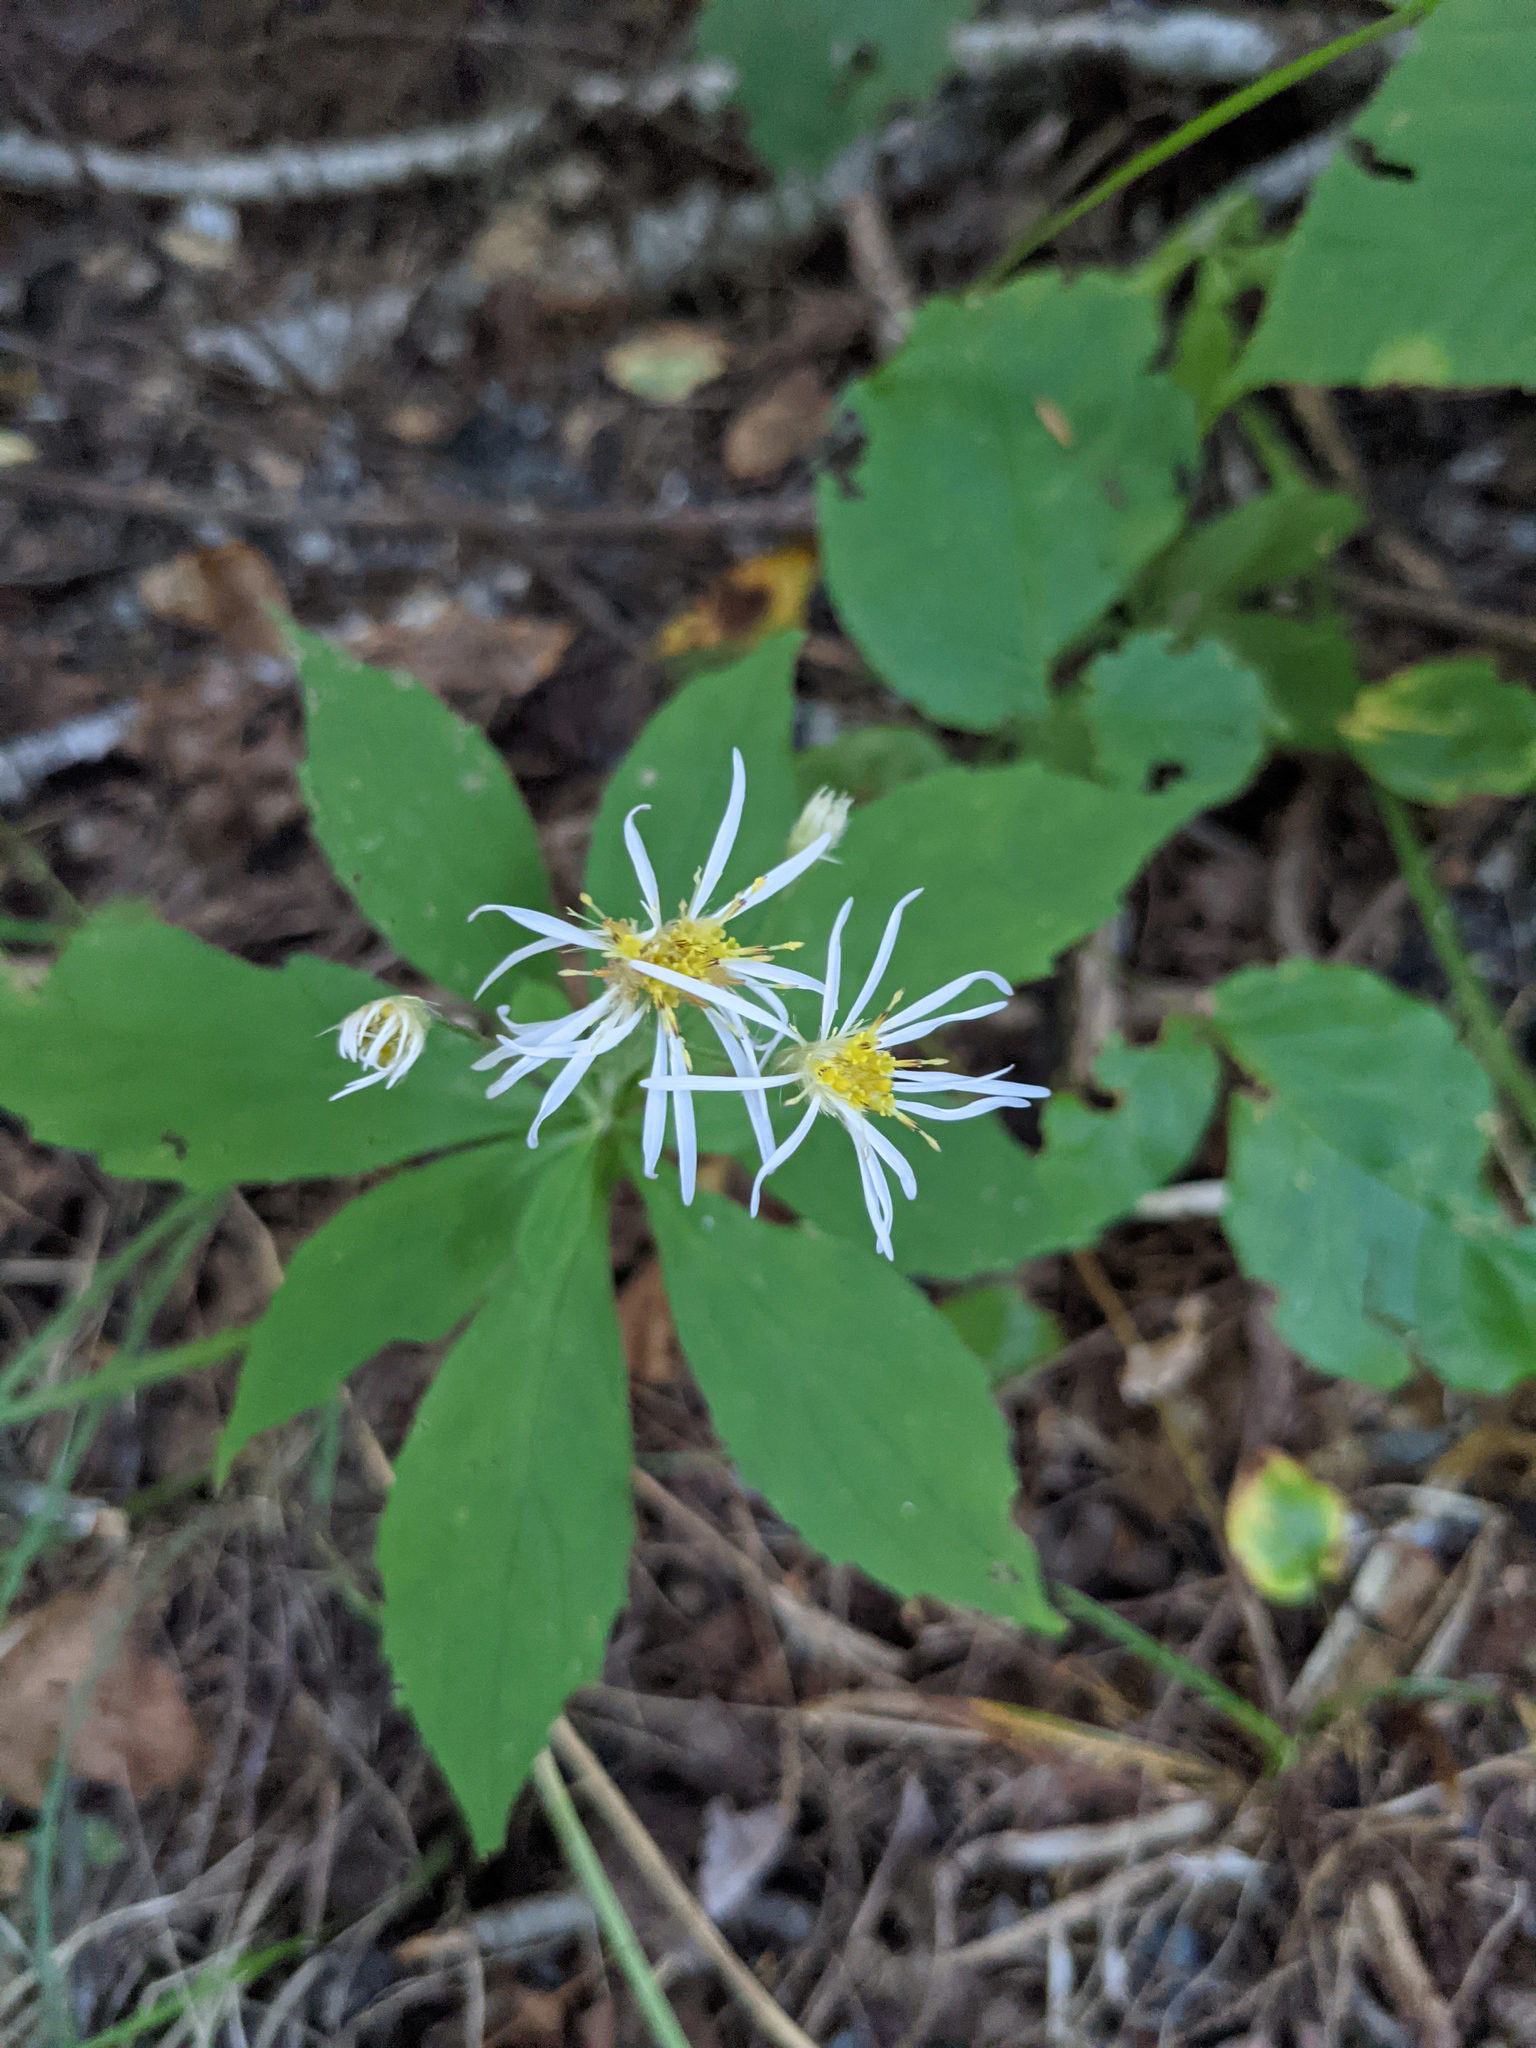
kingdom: Plantae
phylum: Tracheophyta
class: Magnoliopsida
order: Asterales
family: Asteraceae
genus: Oclemena
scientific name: Oclemena acuminata
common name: Mountain aster
